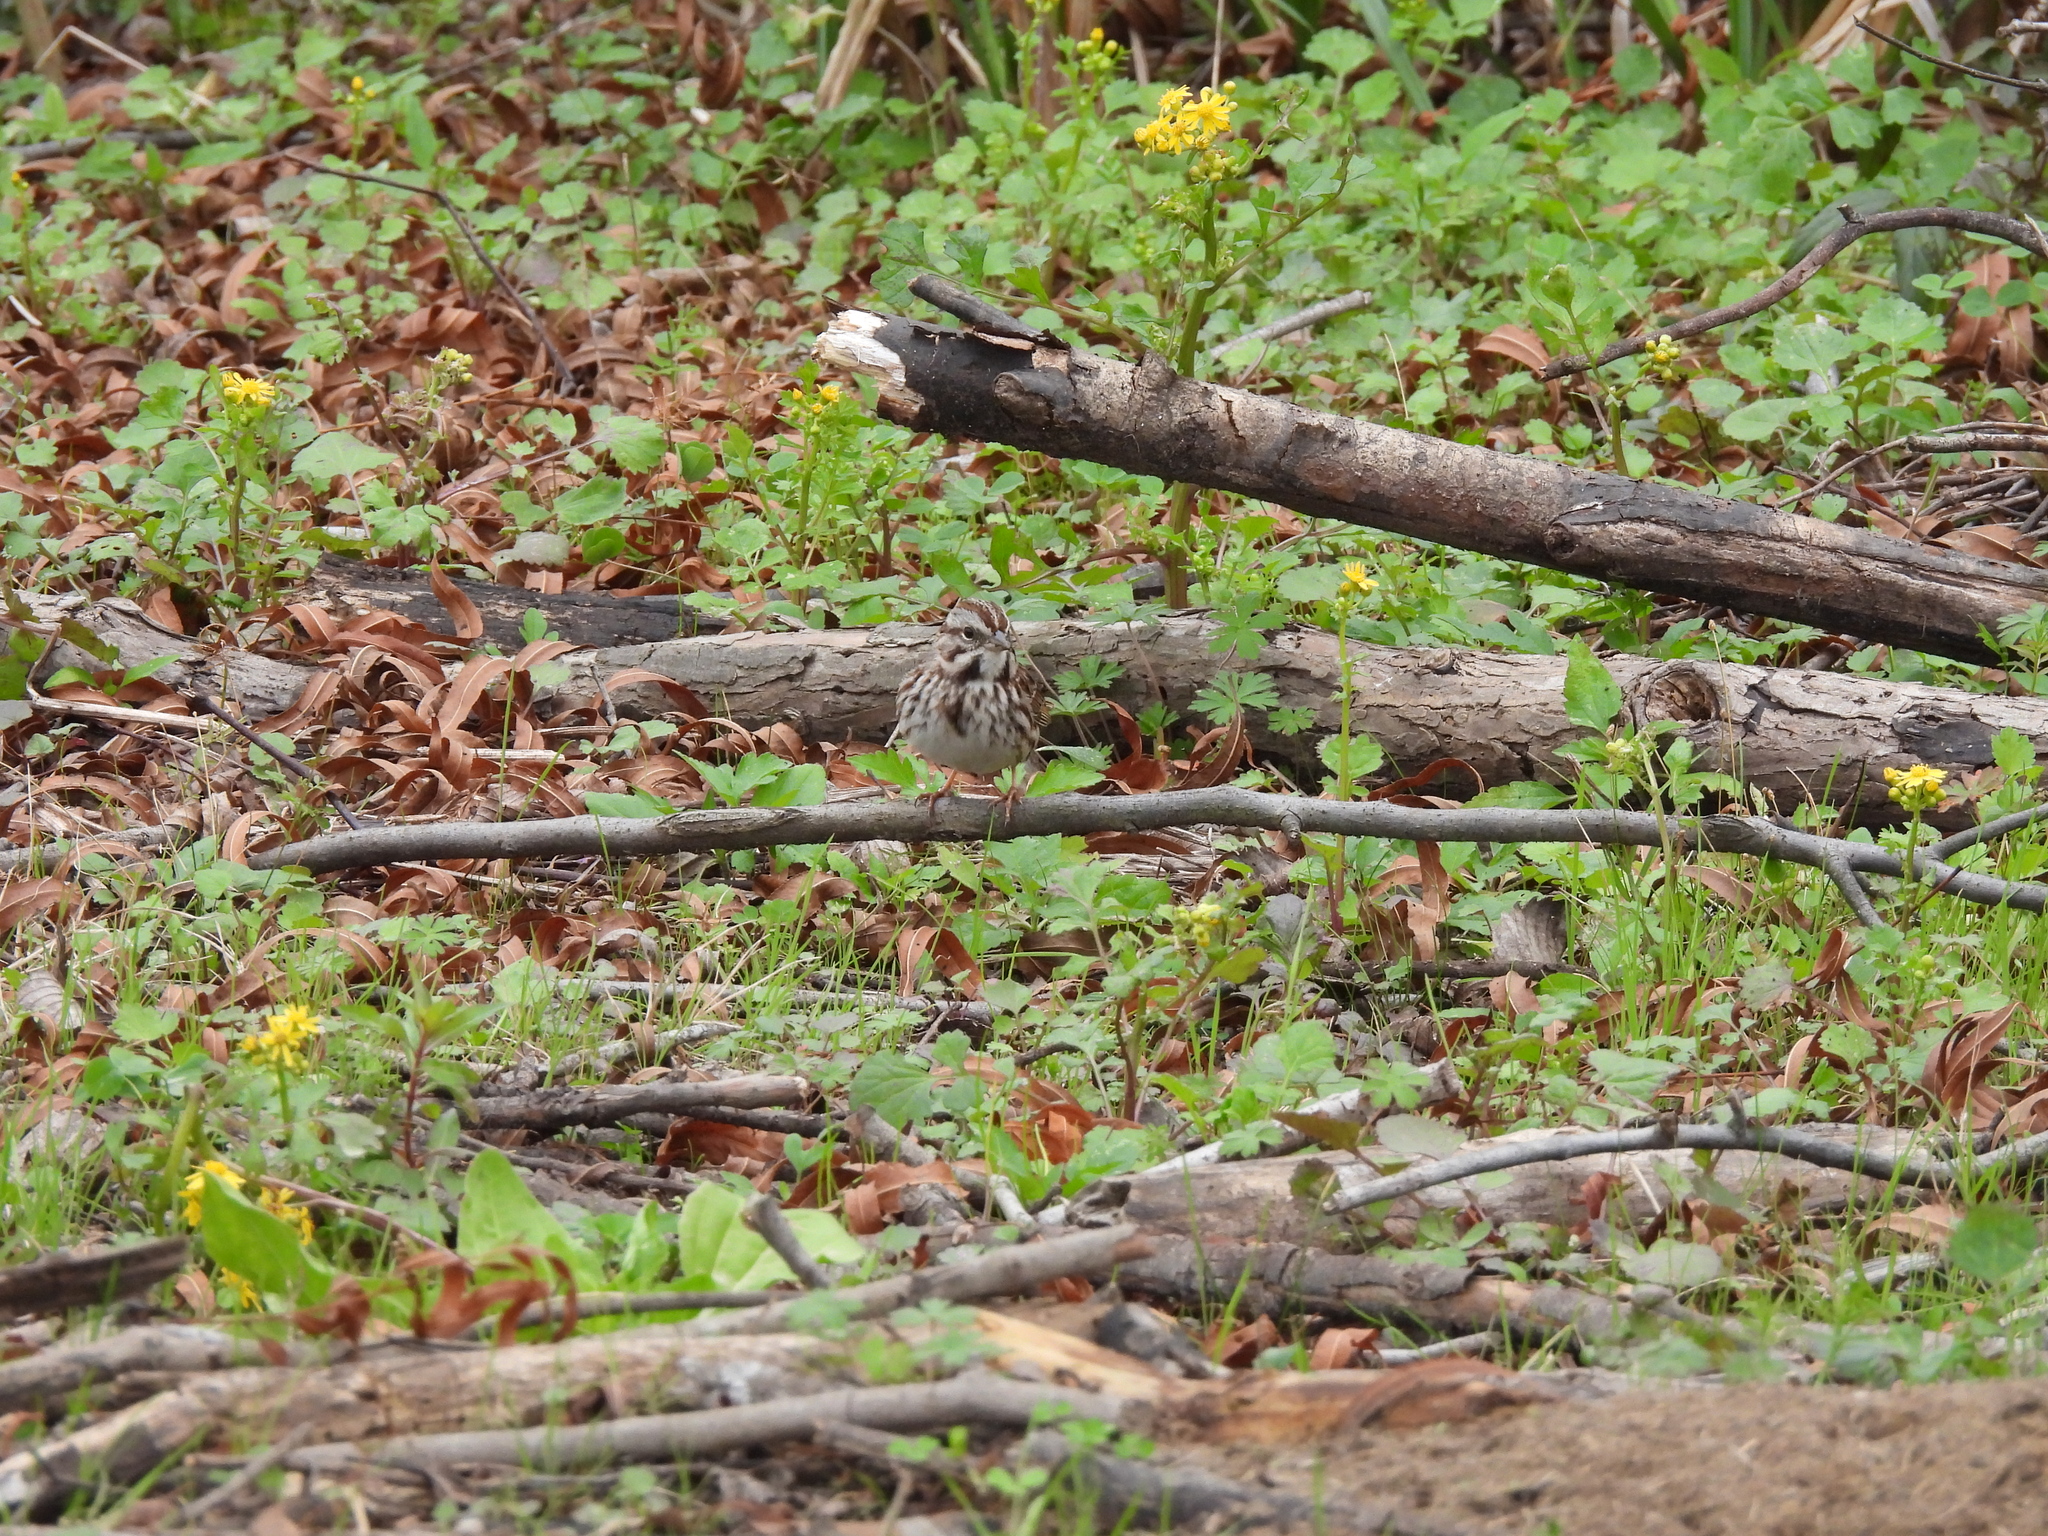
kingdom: Animalia
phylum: Chordata
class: Aves
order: Passeriformes
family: Passerellidae
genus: Melospiza
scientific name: Melospiza melodia
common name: Song sparrow
